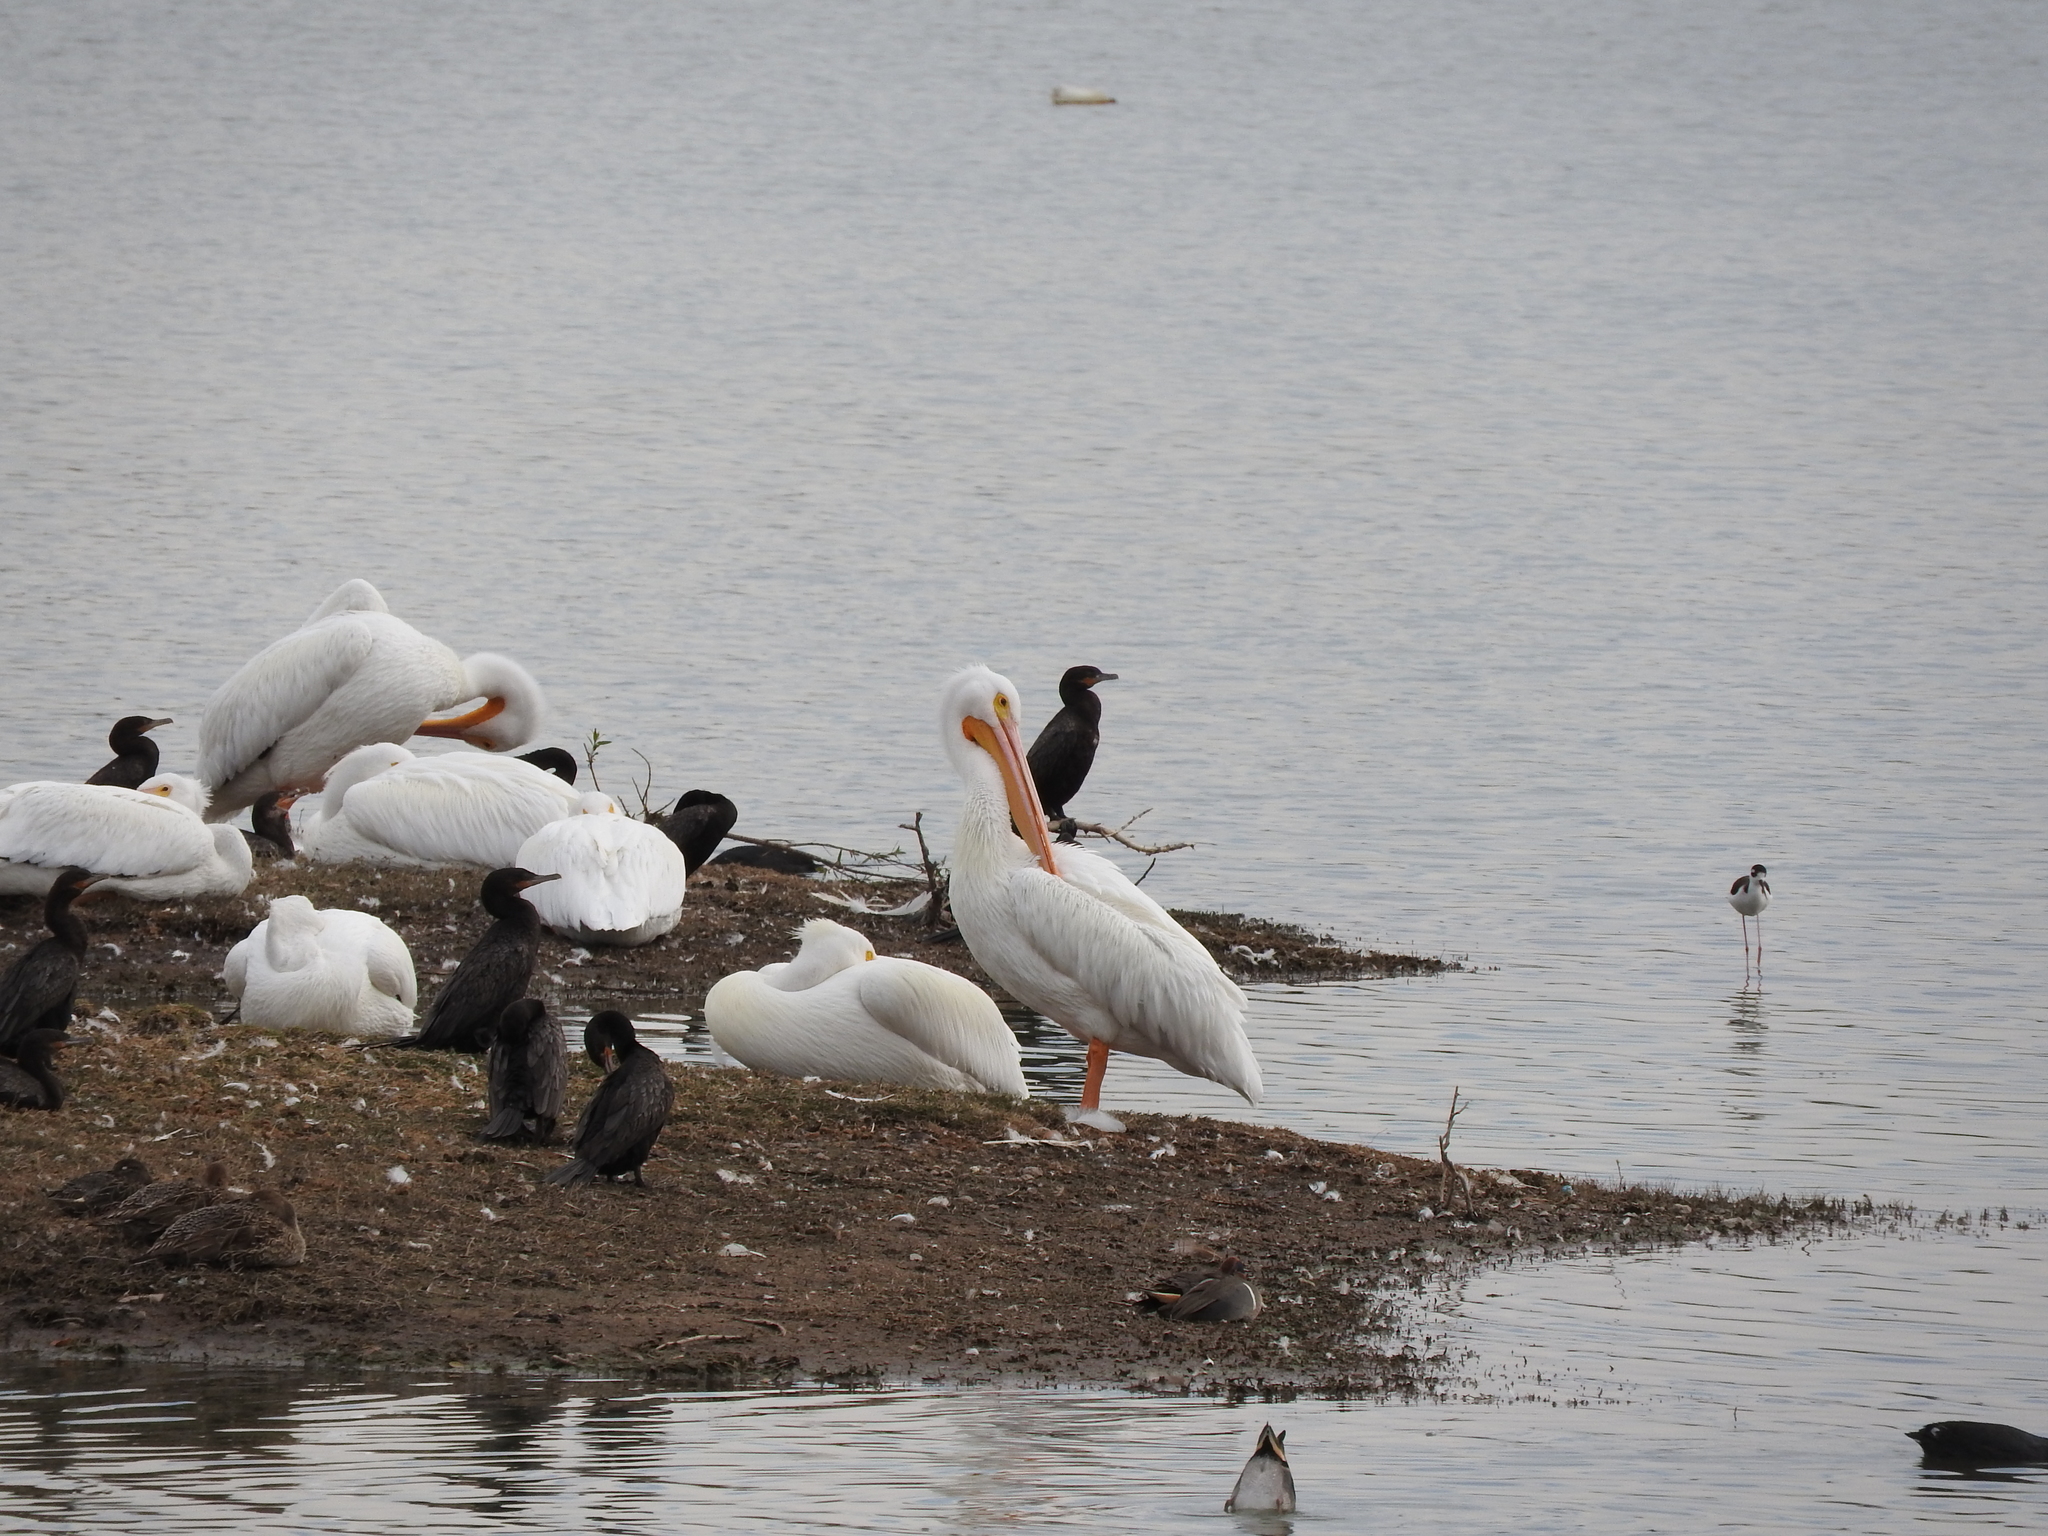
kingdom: Animalia
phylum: Chordata
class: Aves
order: Pelecaniformes
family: Pelecanidae
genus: Pelecanus
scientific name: Pelecanus erythrorhynchos
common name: American white pelican
